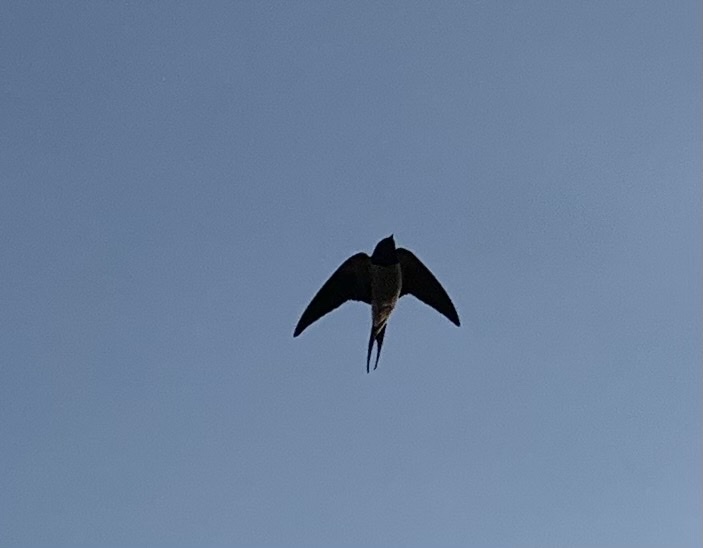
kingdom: Animalia
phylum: Chordata
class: Aves
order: Passeriformes
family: Hirundinidae
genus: Hirundo
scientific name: Hirundo rustica
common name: Barn swallow
